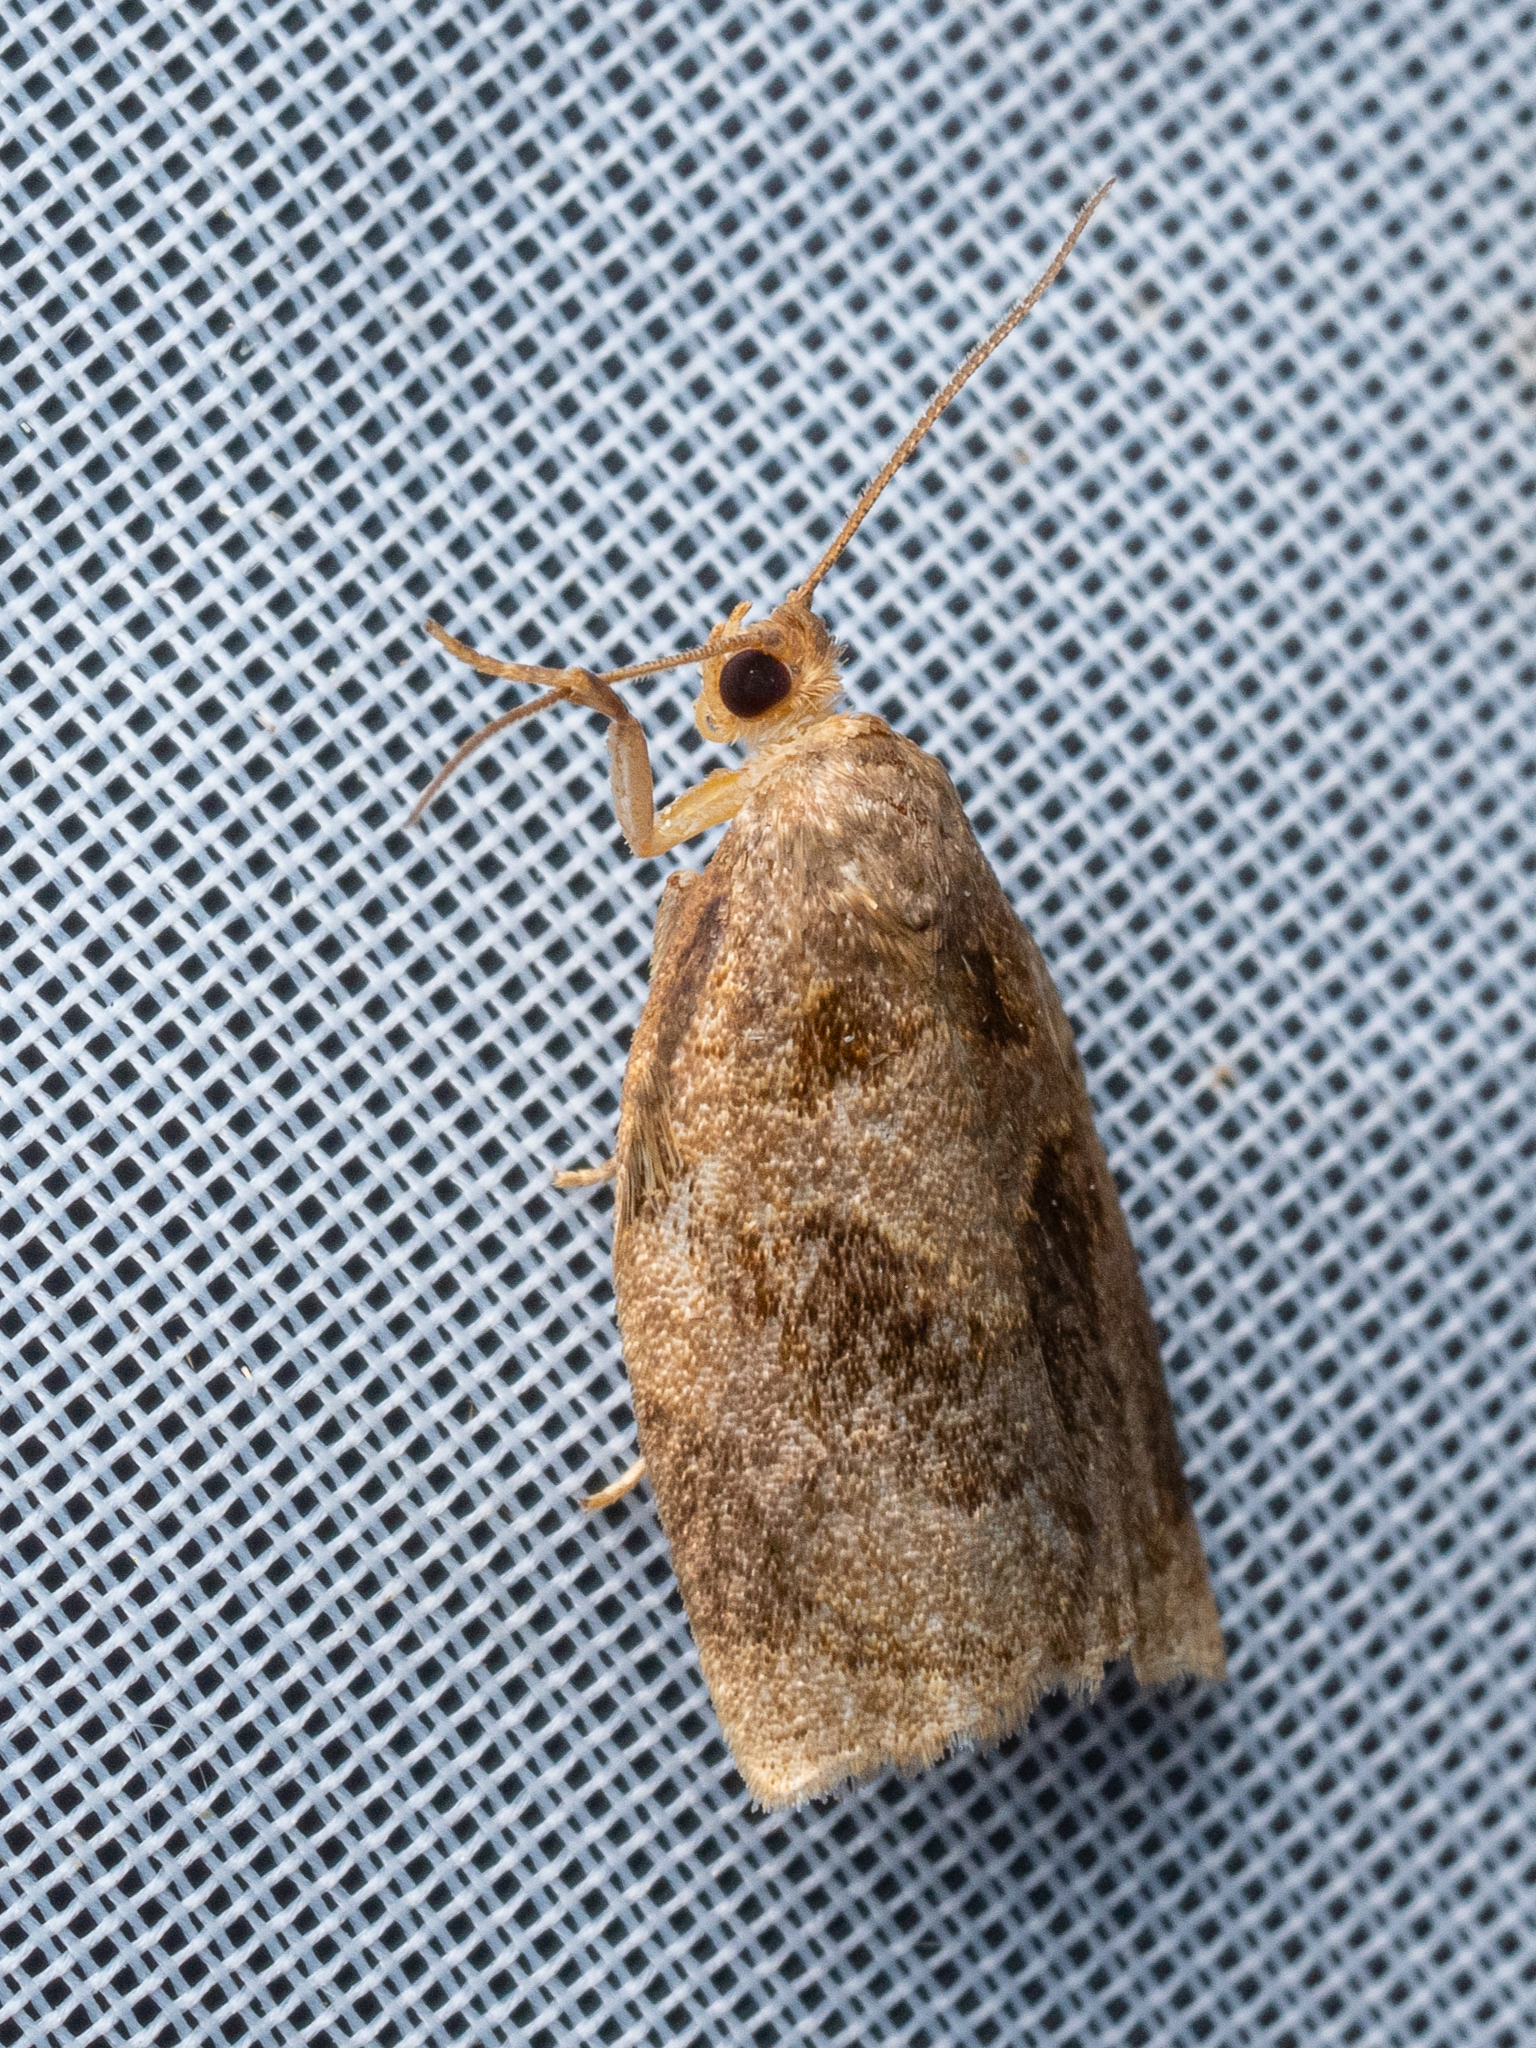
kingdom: Animalia
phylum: Arthropoda
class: Insecta
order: Lepidoptera
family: Tortricidae
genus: Archips
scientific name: Archips rosana
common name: Rose tortrix
